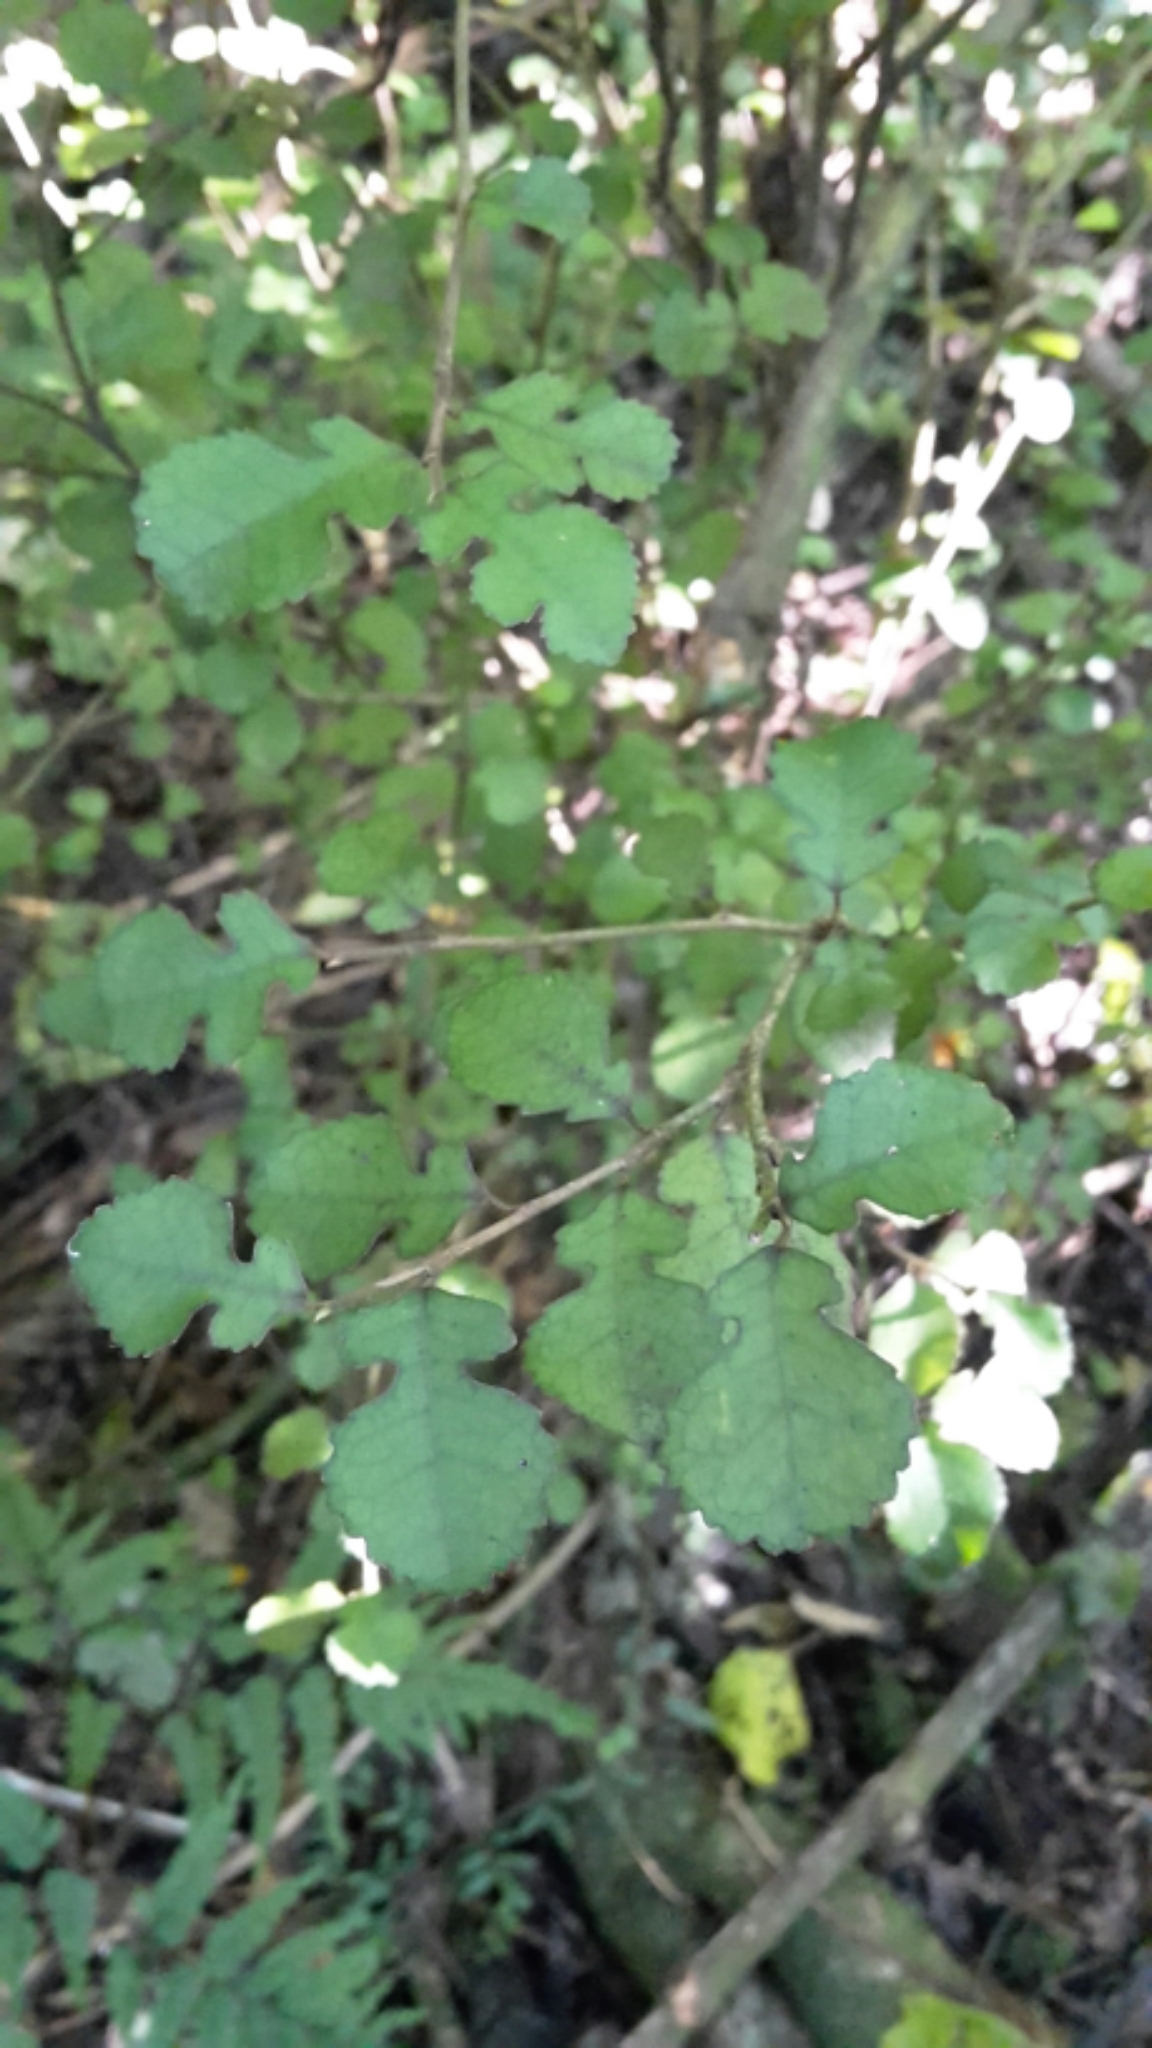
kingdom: Plantae
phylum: Tracheophyta
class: Magnoliopsida
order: Rosales
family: Moraceae
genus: Paratrophis
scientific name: Paratrophis microphylla
